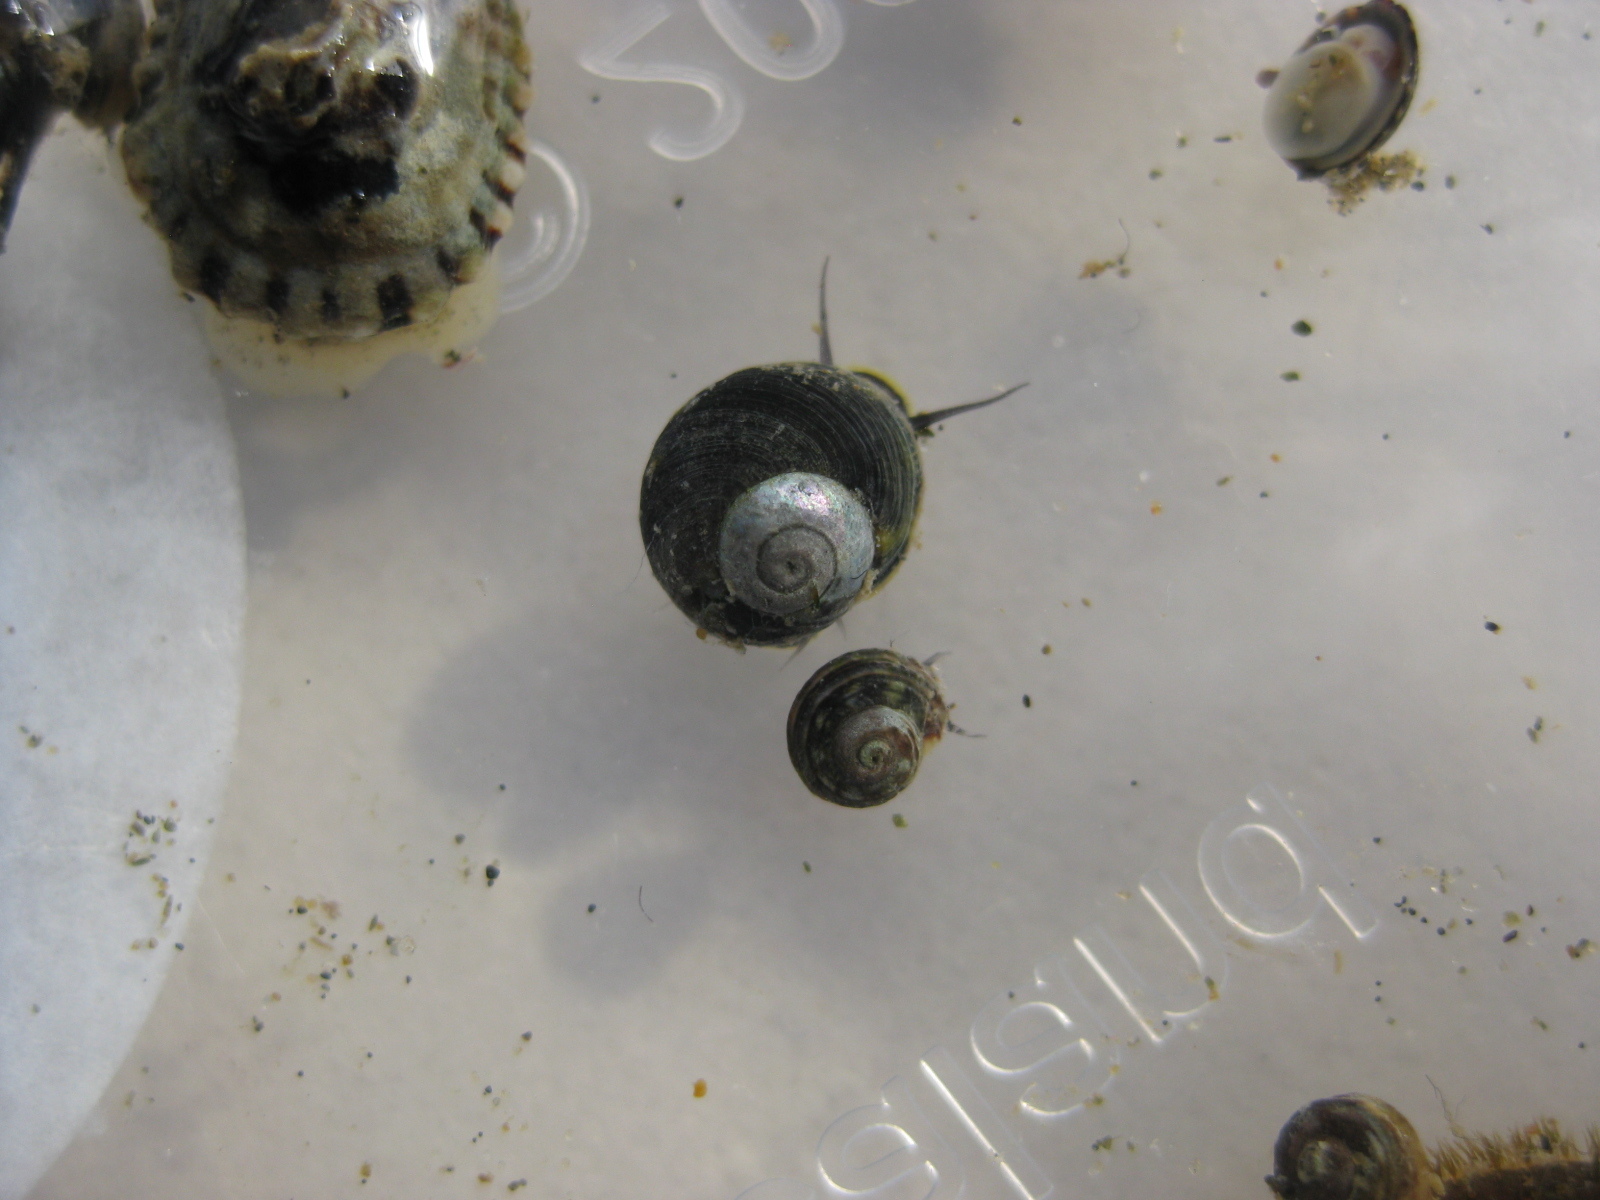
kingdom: Animalia
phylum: Mollusca
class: Gastropoda
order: Trochida
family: Trochidae
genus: Diloma
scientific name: Diloma coracinum
